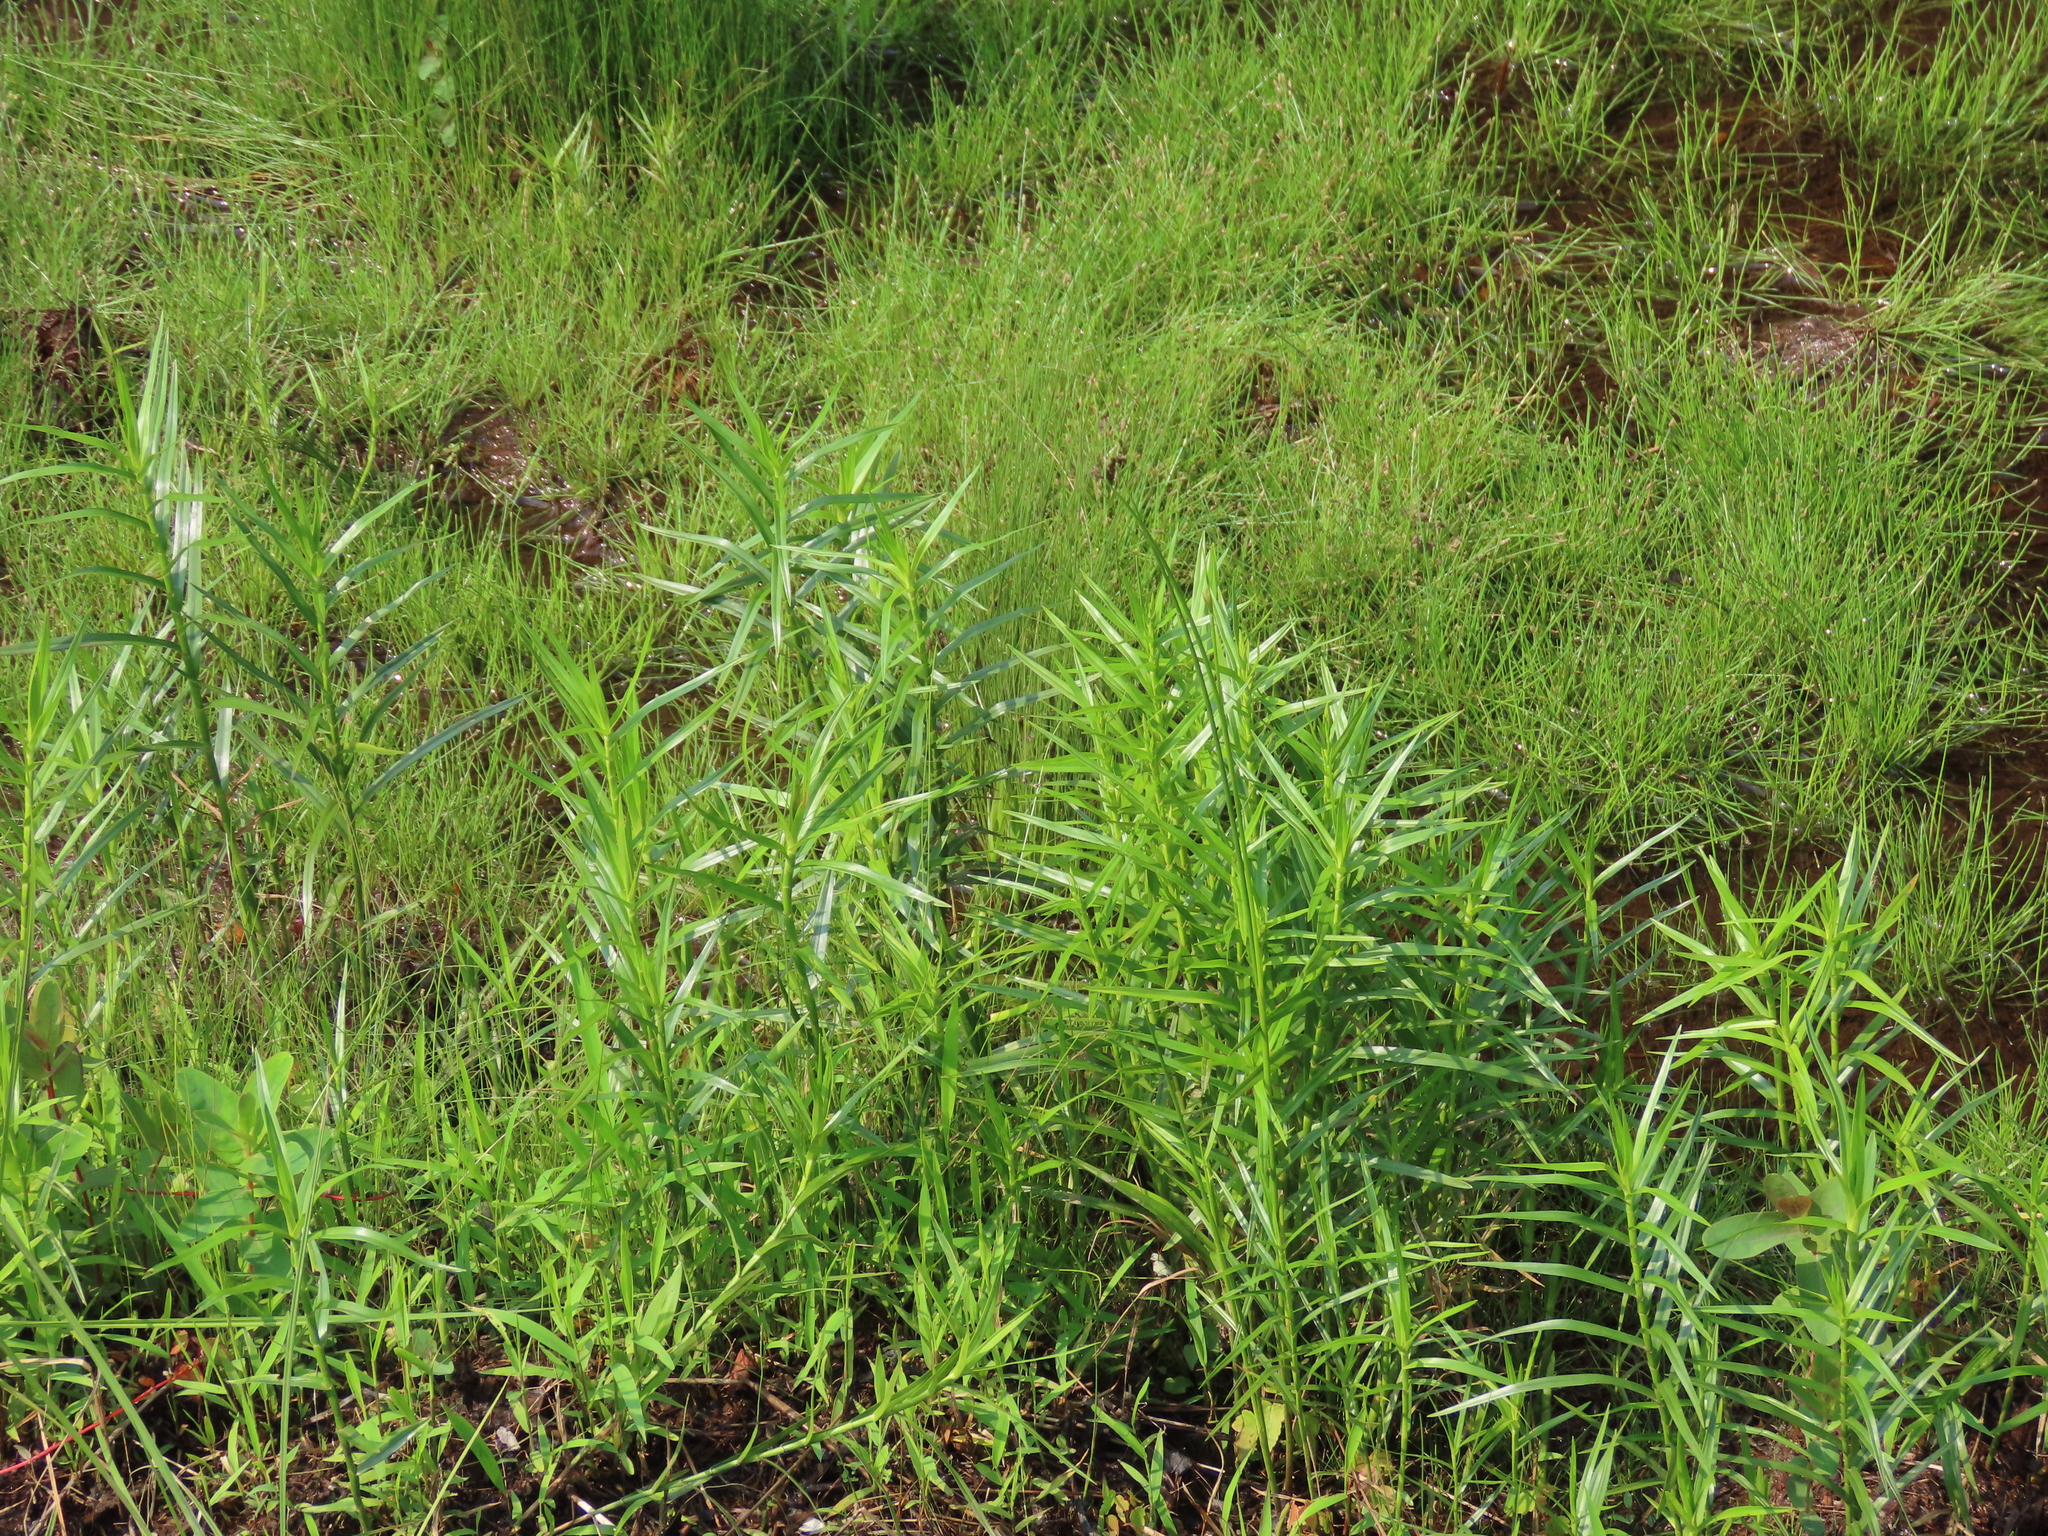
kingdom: Plantae
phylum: Tracheophyta
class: Liliopsida
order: Poales
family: Cyperaceae
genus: Dulichium
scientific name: Dulichium arundinaceum
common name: Three-way sedge
